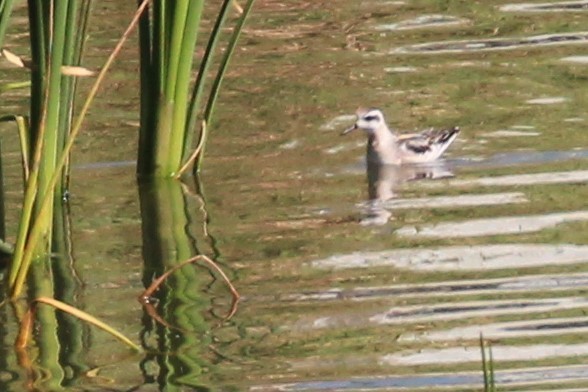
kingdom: Animalia
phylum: Chordata
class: Aves
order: Charadriiformes
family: Scolopacidae
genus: Phalaropus
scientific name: Phalaropus lobatus
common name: Red-necked phalarope
